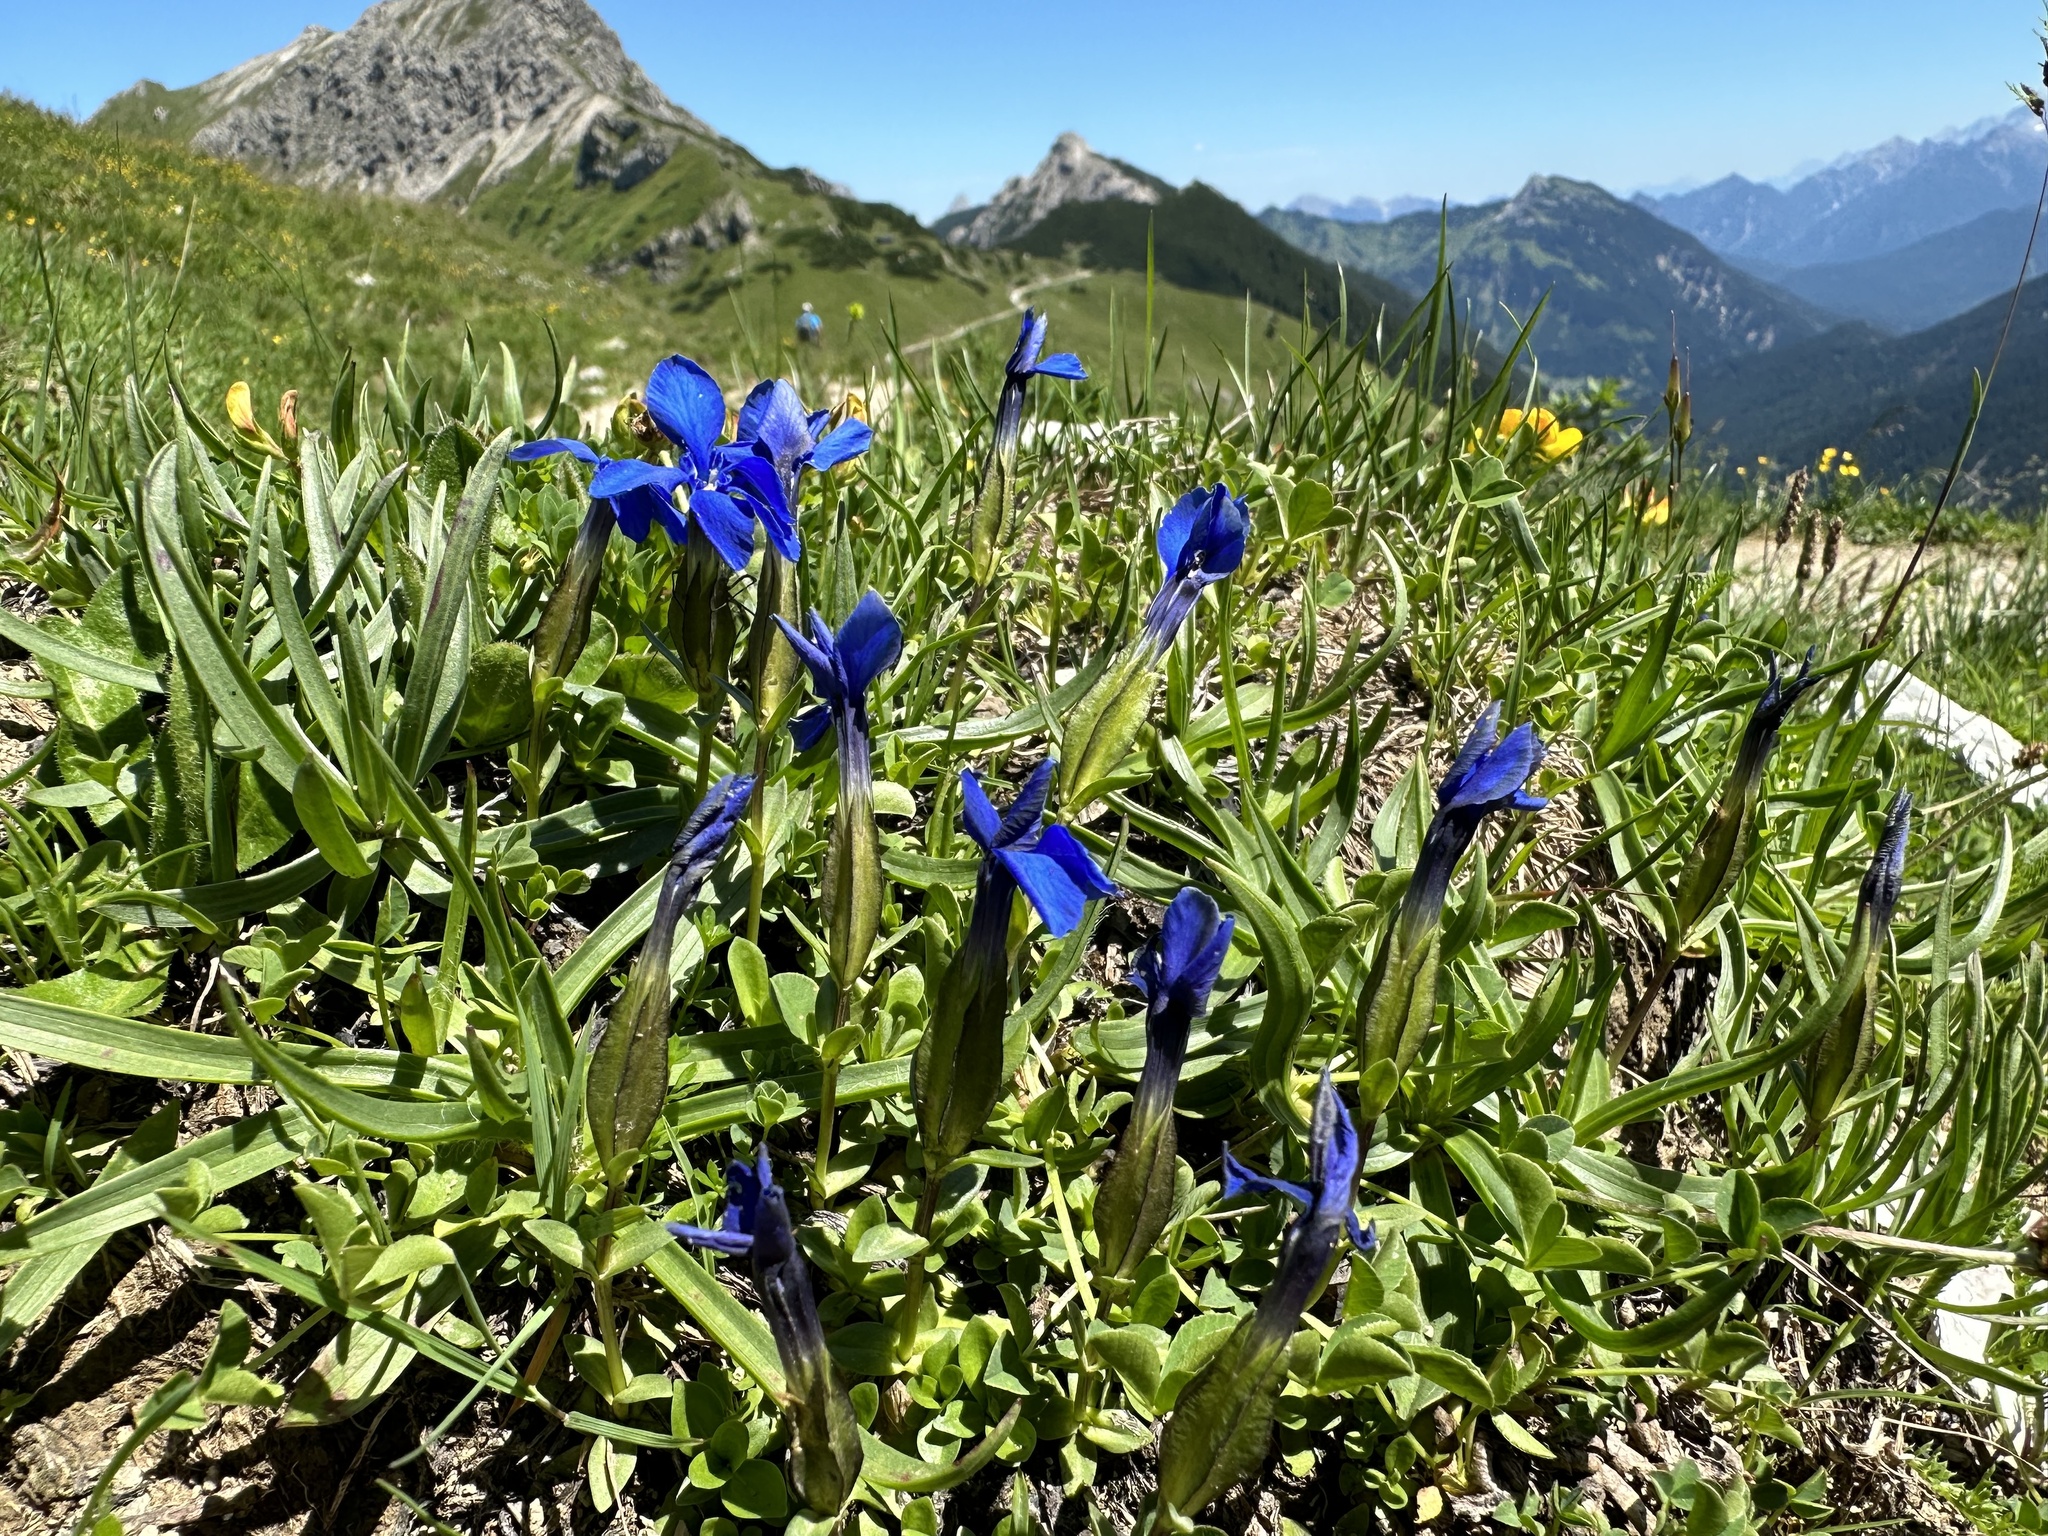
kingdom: Plantae
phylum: Tracheophyta
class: Magnoliopsida
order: Gentianales
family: Gentianaceae
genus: Gentiana
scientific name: Gentiana verna
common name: Spring gentian
